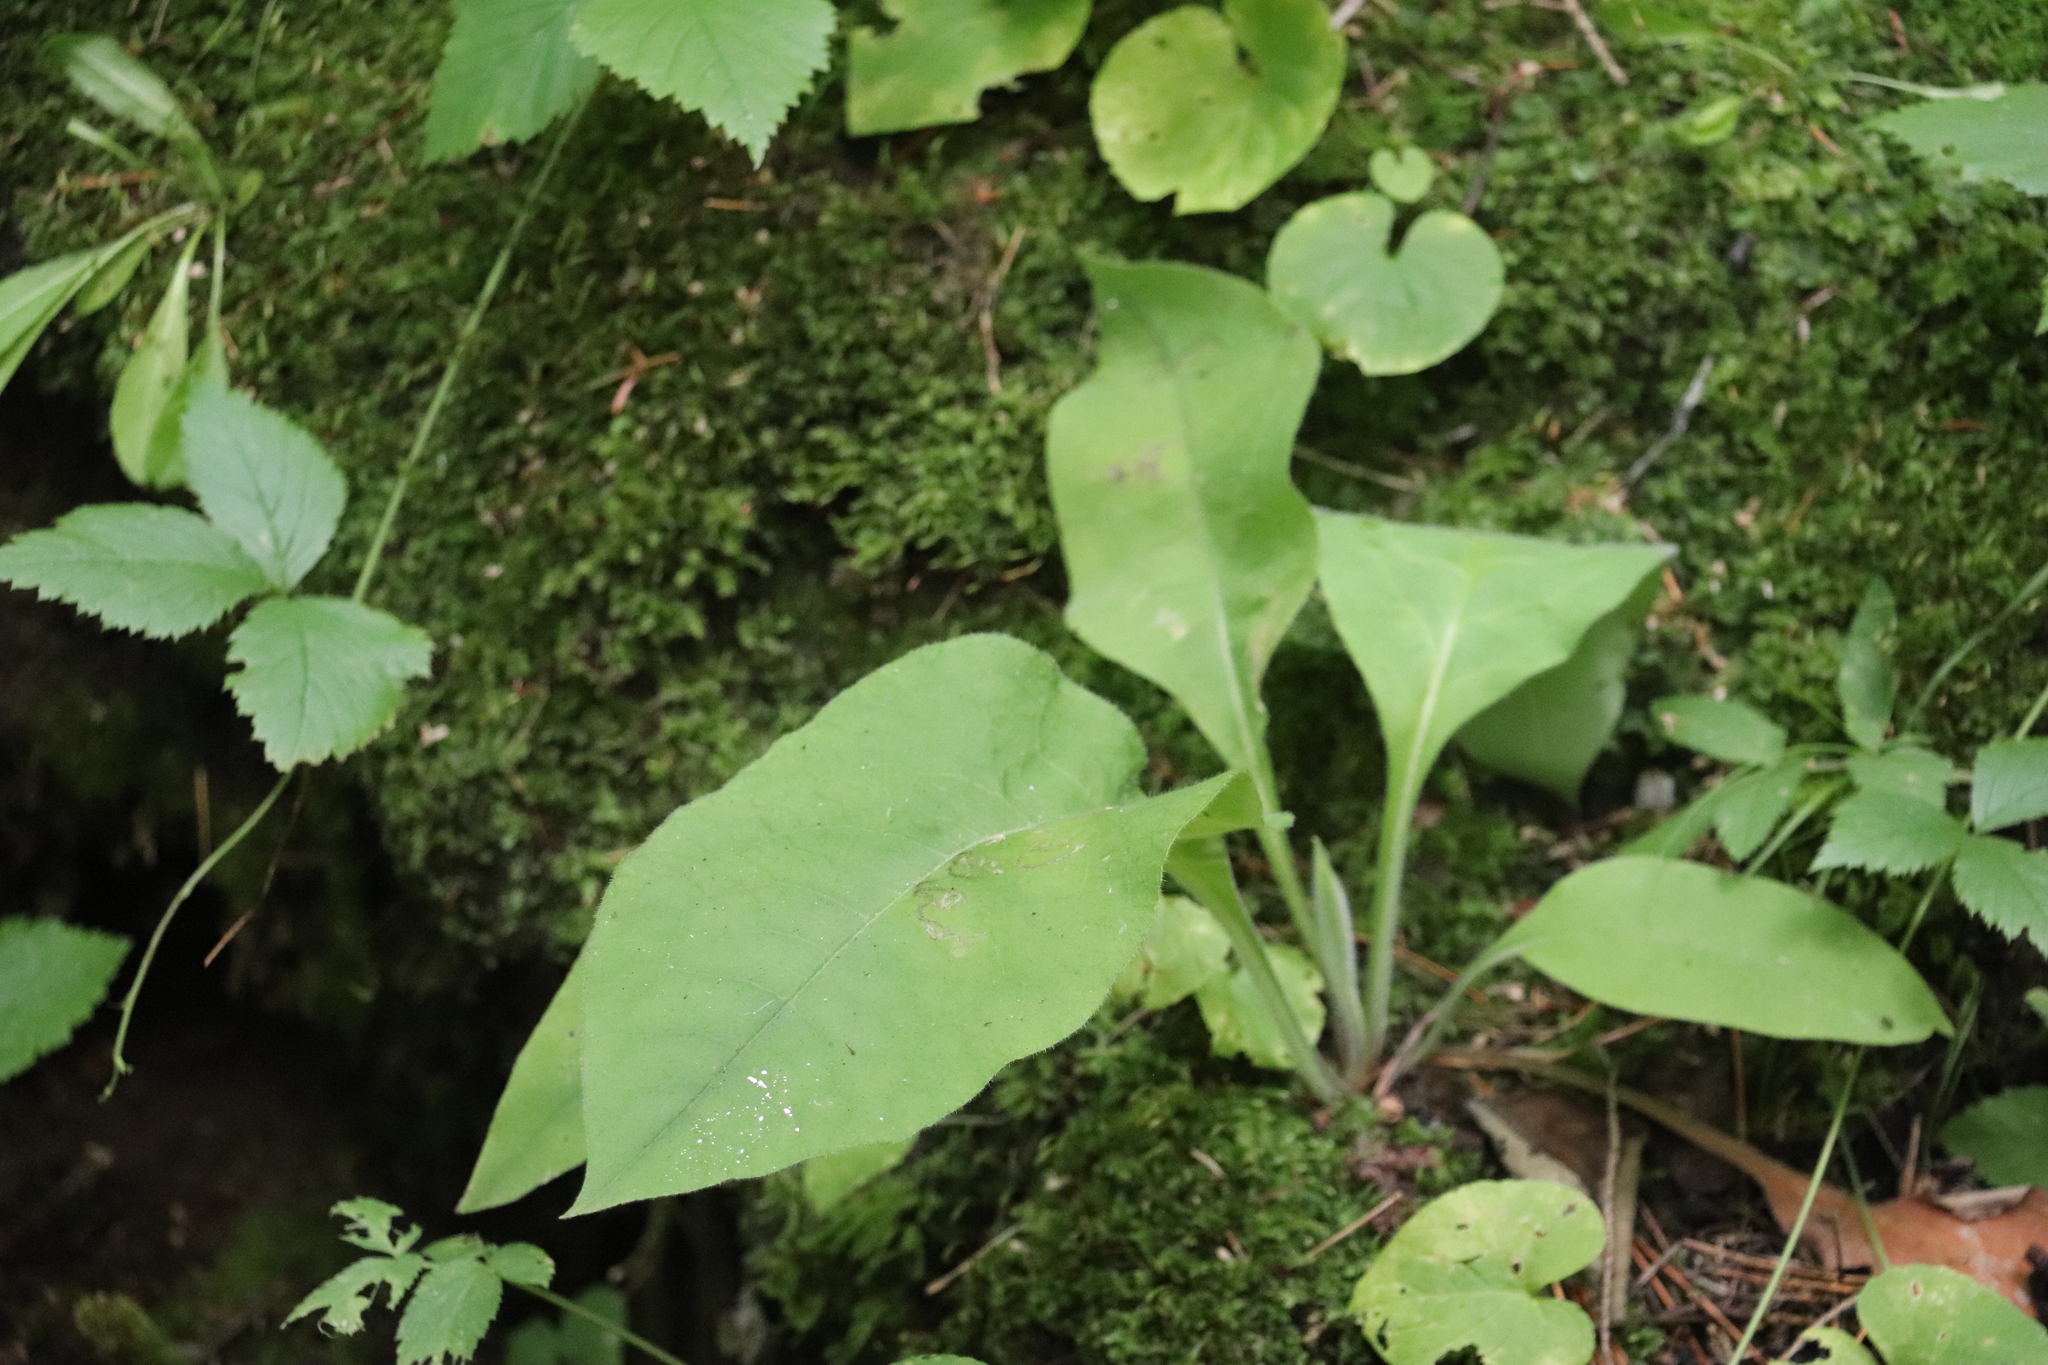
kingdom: Plantae
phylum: Tracheophyta
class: Magnoliopsida
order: Boraginales
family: Boraginaceae
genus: Pulmonaria
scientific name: Pulmonaria mollis
